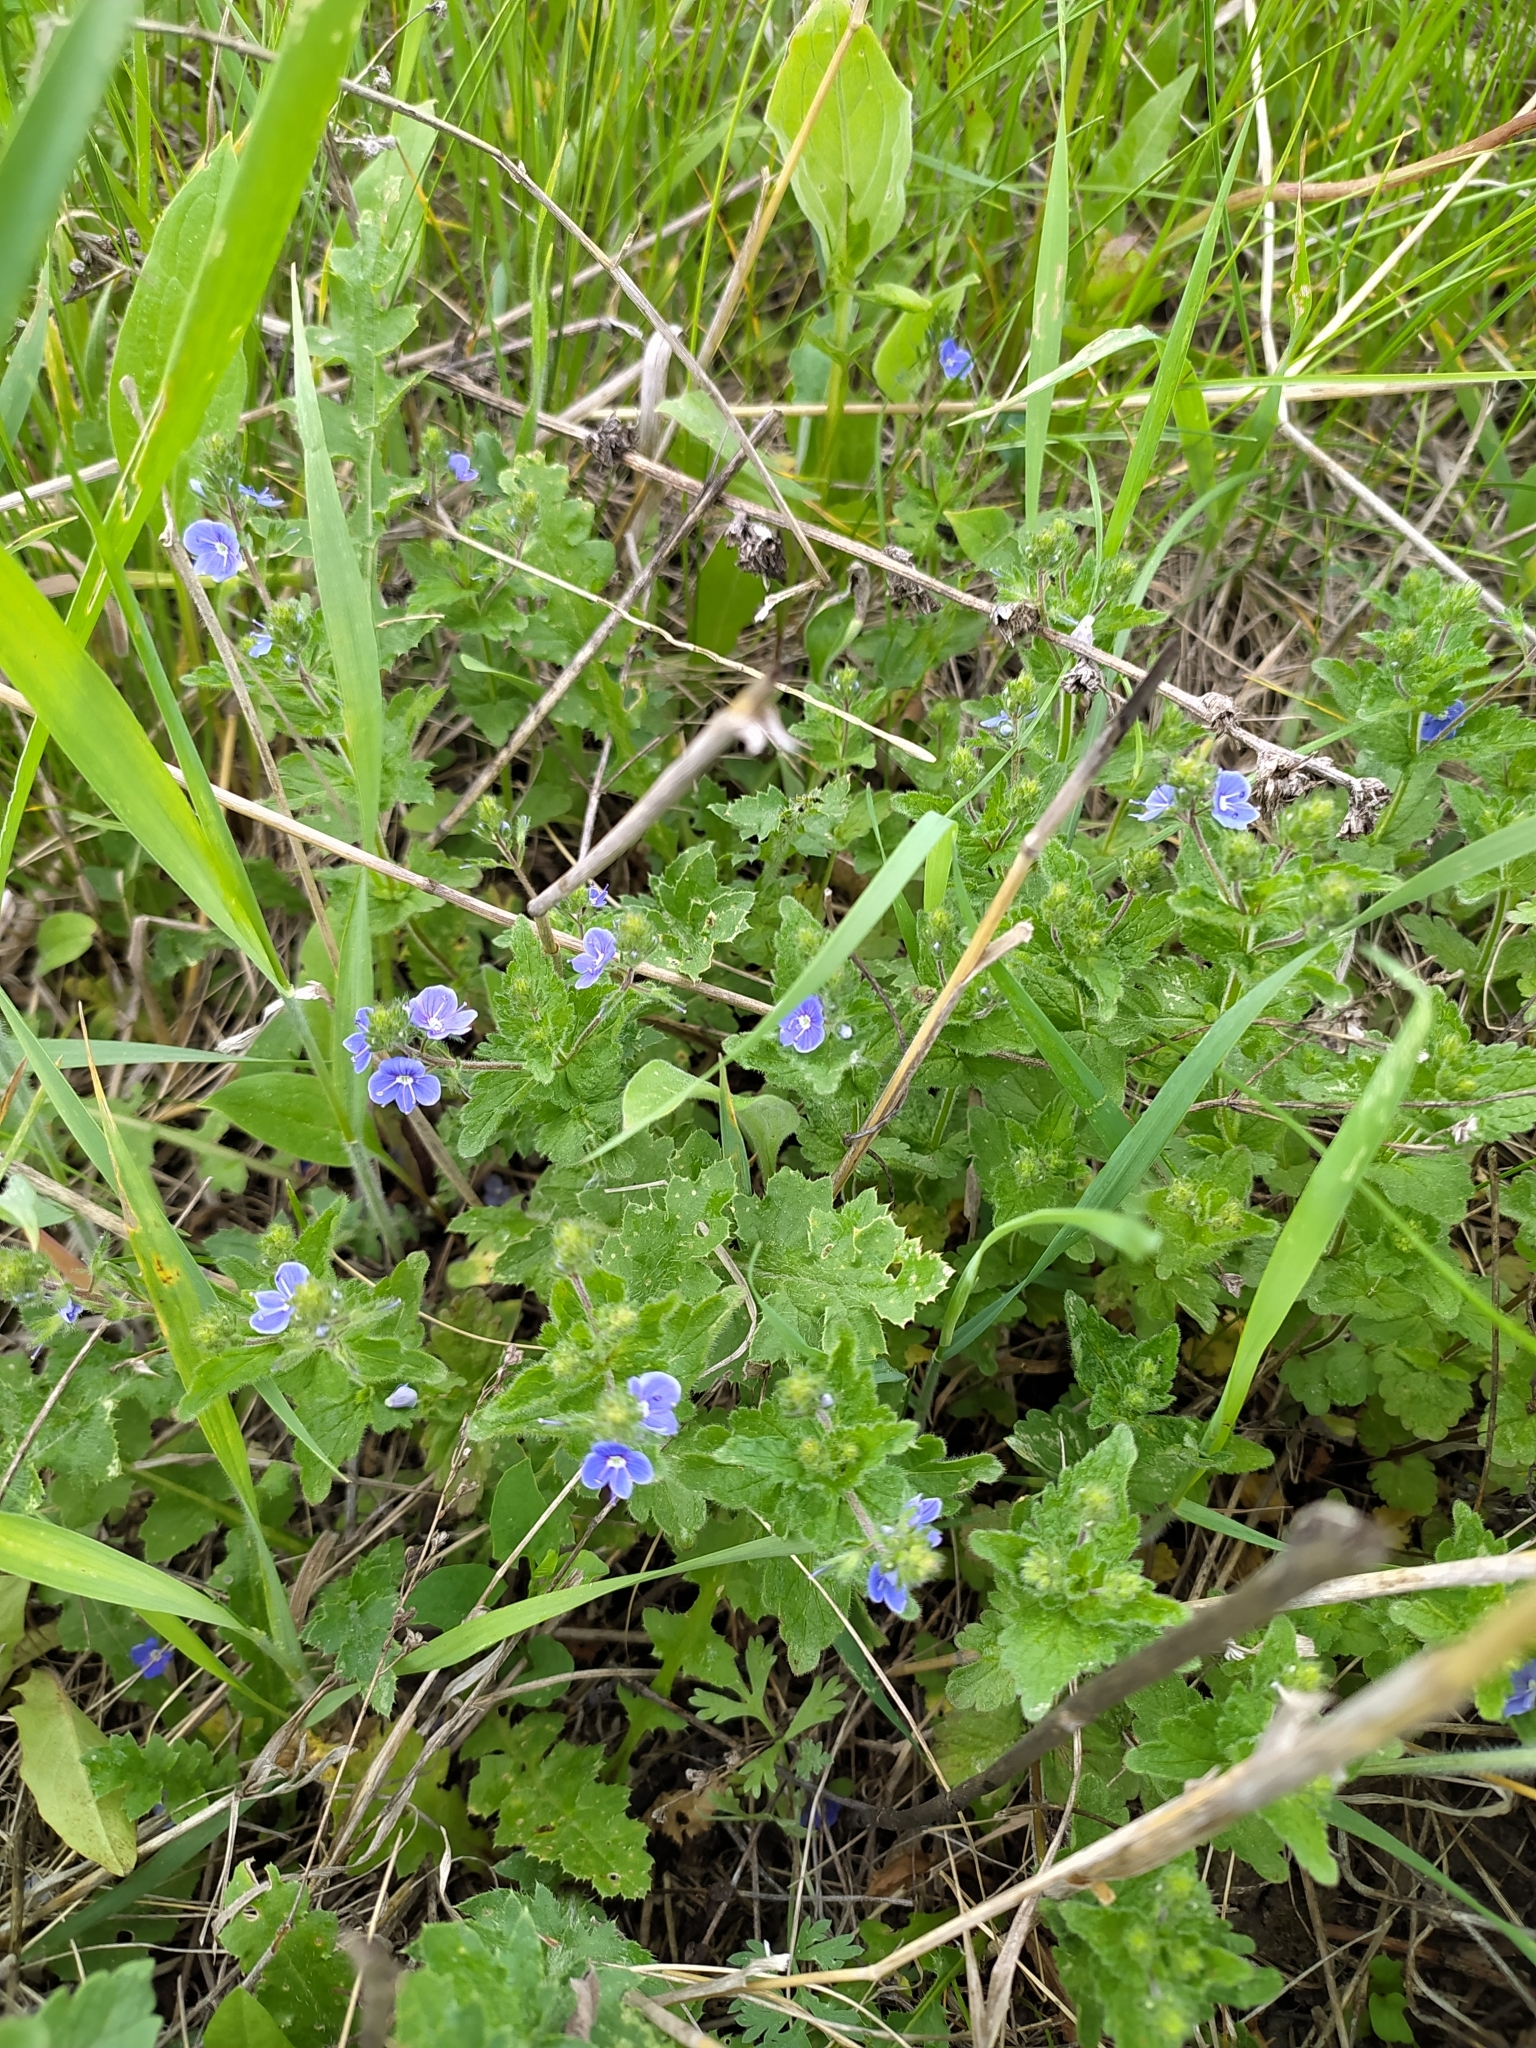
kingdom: Plantae
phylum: Tracheophyta
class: Magnoliopsida
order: Lamiales
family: Plantaginaceae
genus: Veronica
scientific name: Veronica chamaedrys
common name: Germander speedwell
